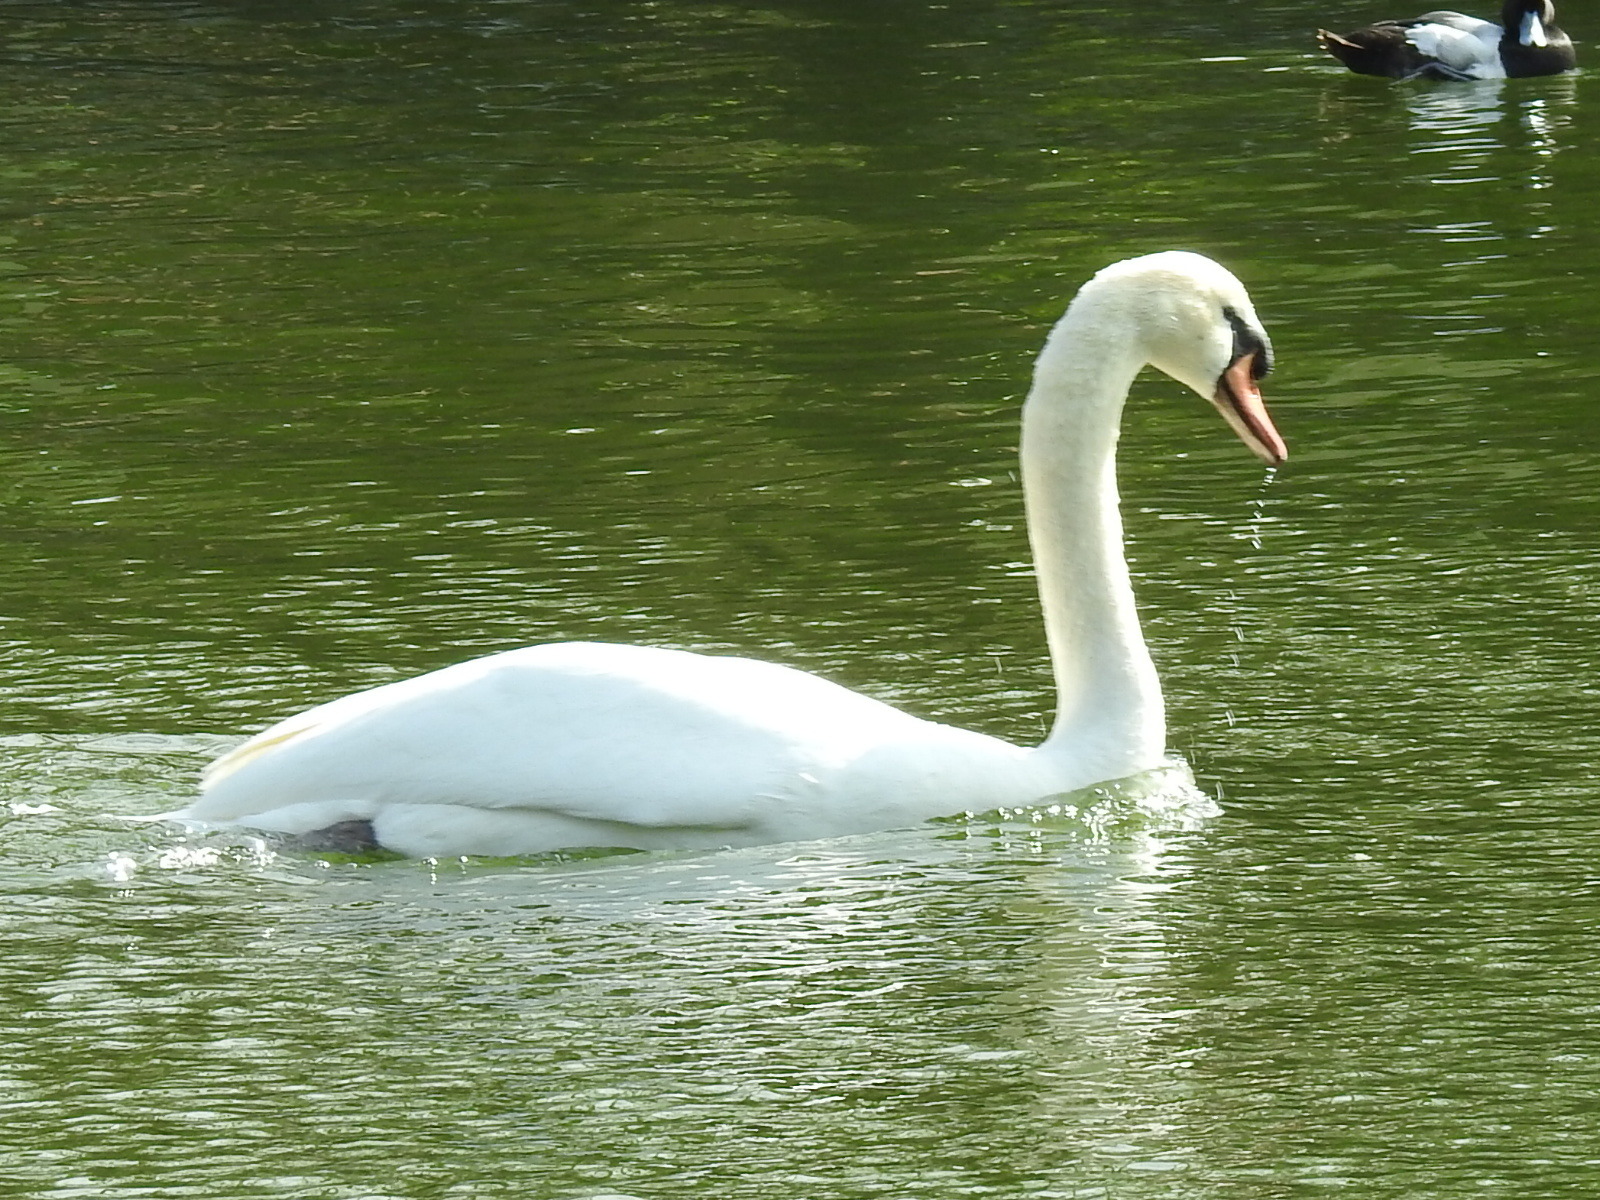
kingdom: Animalia
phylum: Chordata
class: Aves
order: Anseriformes
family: Anatidae
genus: Cygnus
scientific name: Cygnus olor
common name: Mute swan
